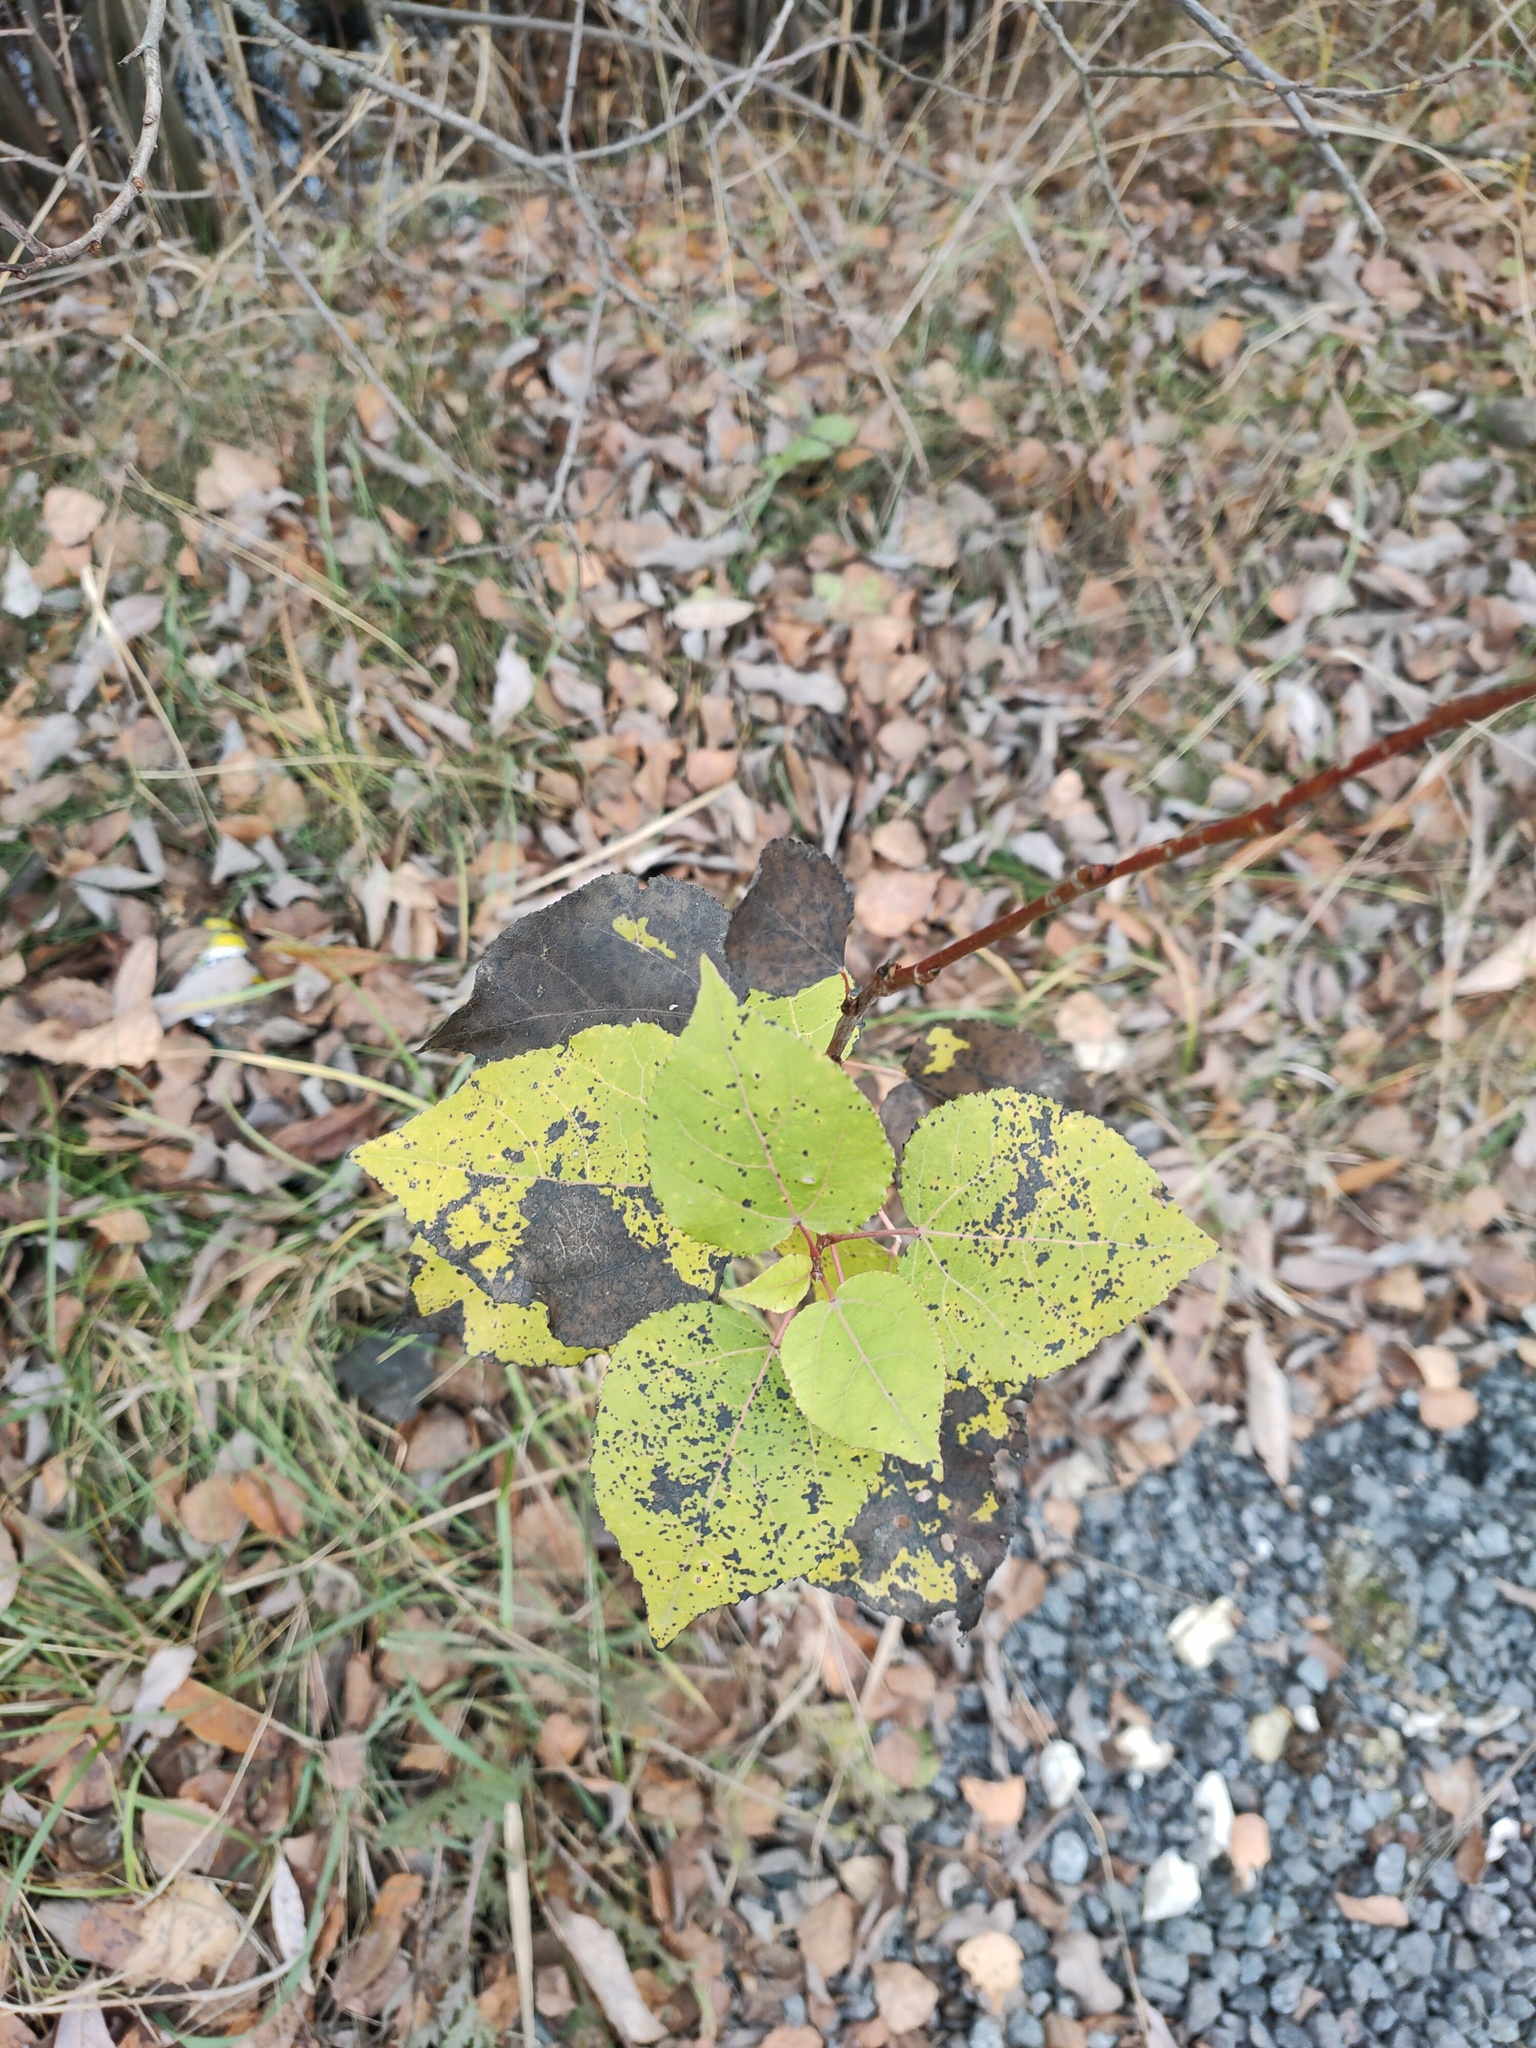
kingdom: Plantae
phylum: Tracheophyta
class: Magnoliopsida
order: Malpighiales
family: Salicaceae
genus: Populus
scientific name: Populus tremula
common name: European aspen
